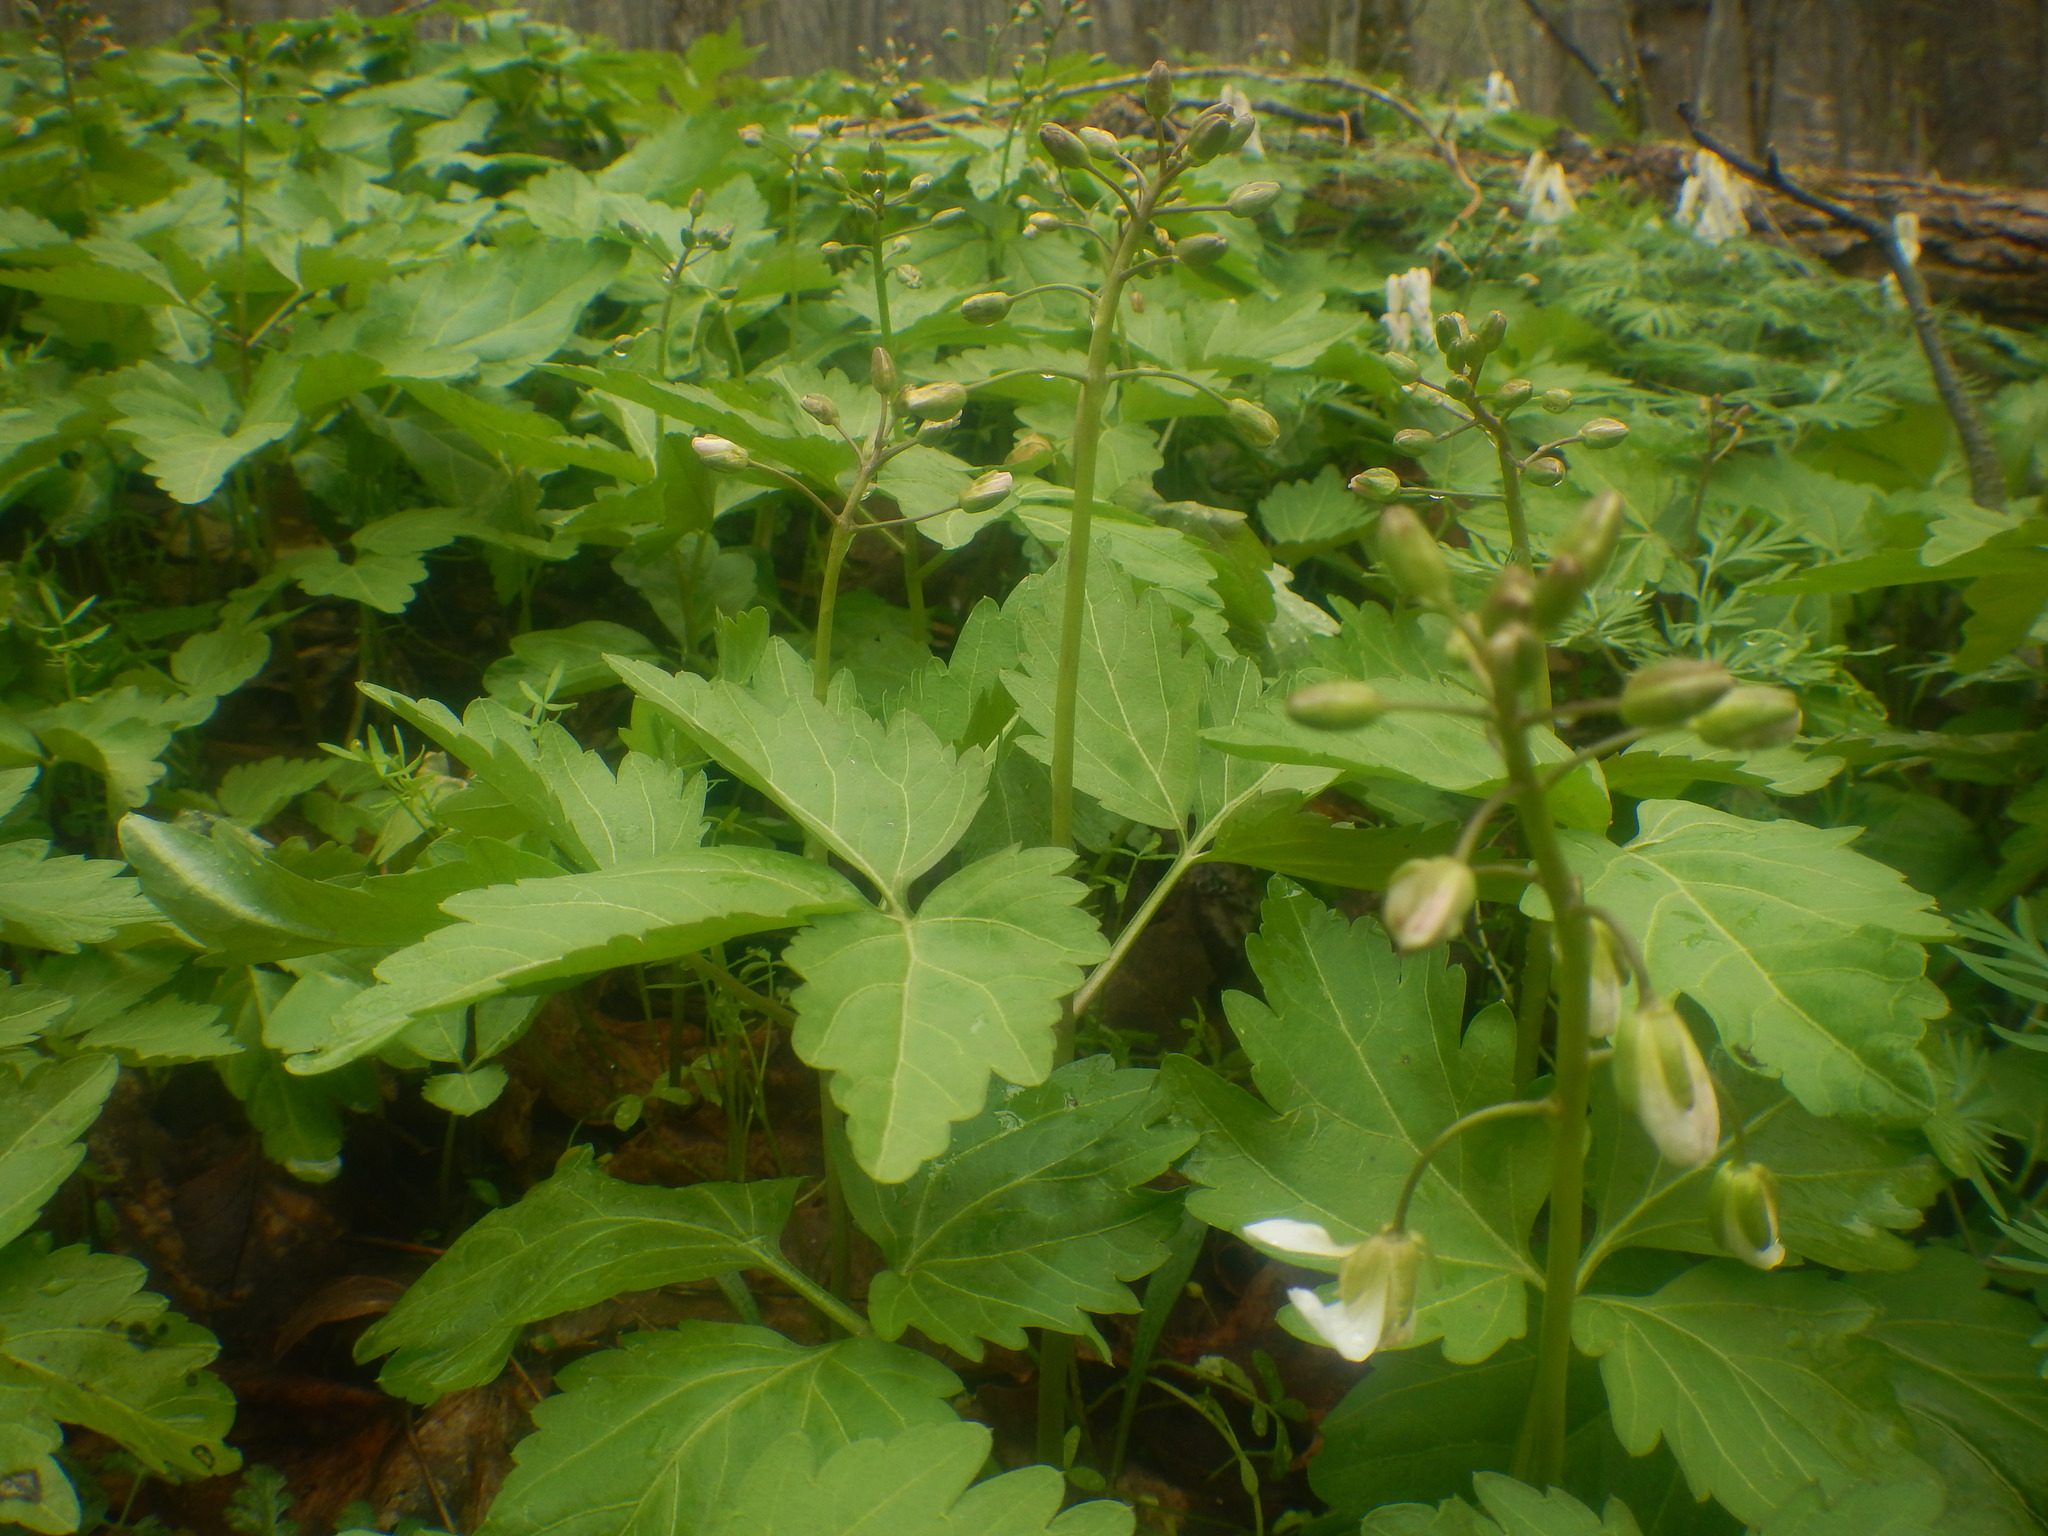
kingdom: Plantae
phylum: Tracheophyta
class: Magnoliopsida
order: Brassicales
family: Brassicaceae
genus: Cardamine
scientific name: Cardamine diphylla
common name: Broad-leaved toothwort
